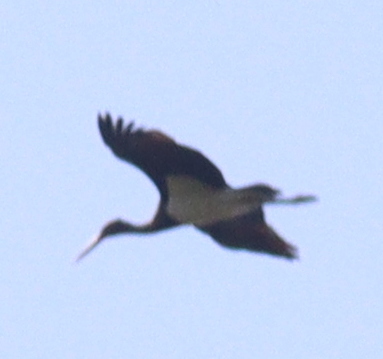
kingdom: Animalia
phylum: Chordata
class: Aves
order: Ciconiiformes
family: Ciconiidae
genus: Ciconia
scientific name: Ciconia nigra
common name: Black stork
